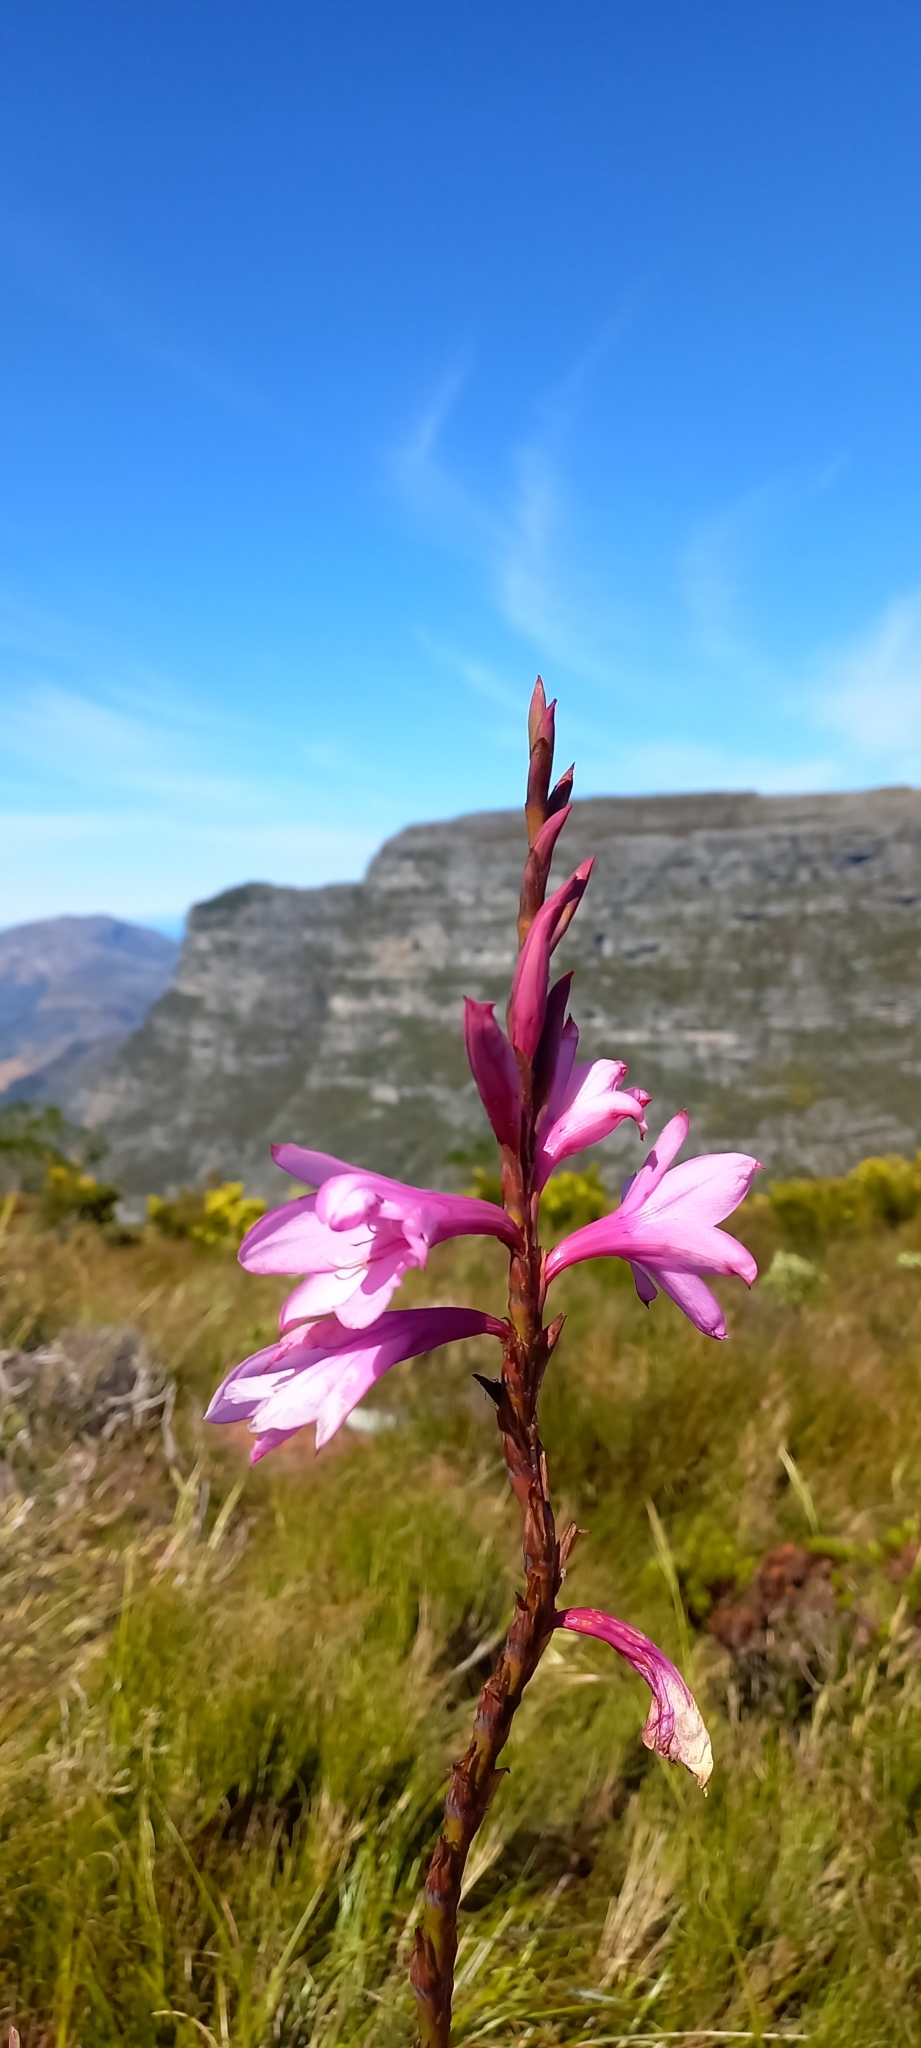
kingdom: Plantae
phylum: Tracheophyta
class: Liliopsida
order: Asparagales
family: Iridaceae
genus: Watsonia
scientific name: Watsonia borbonica
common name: Bugle-lily
